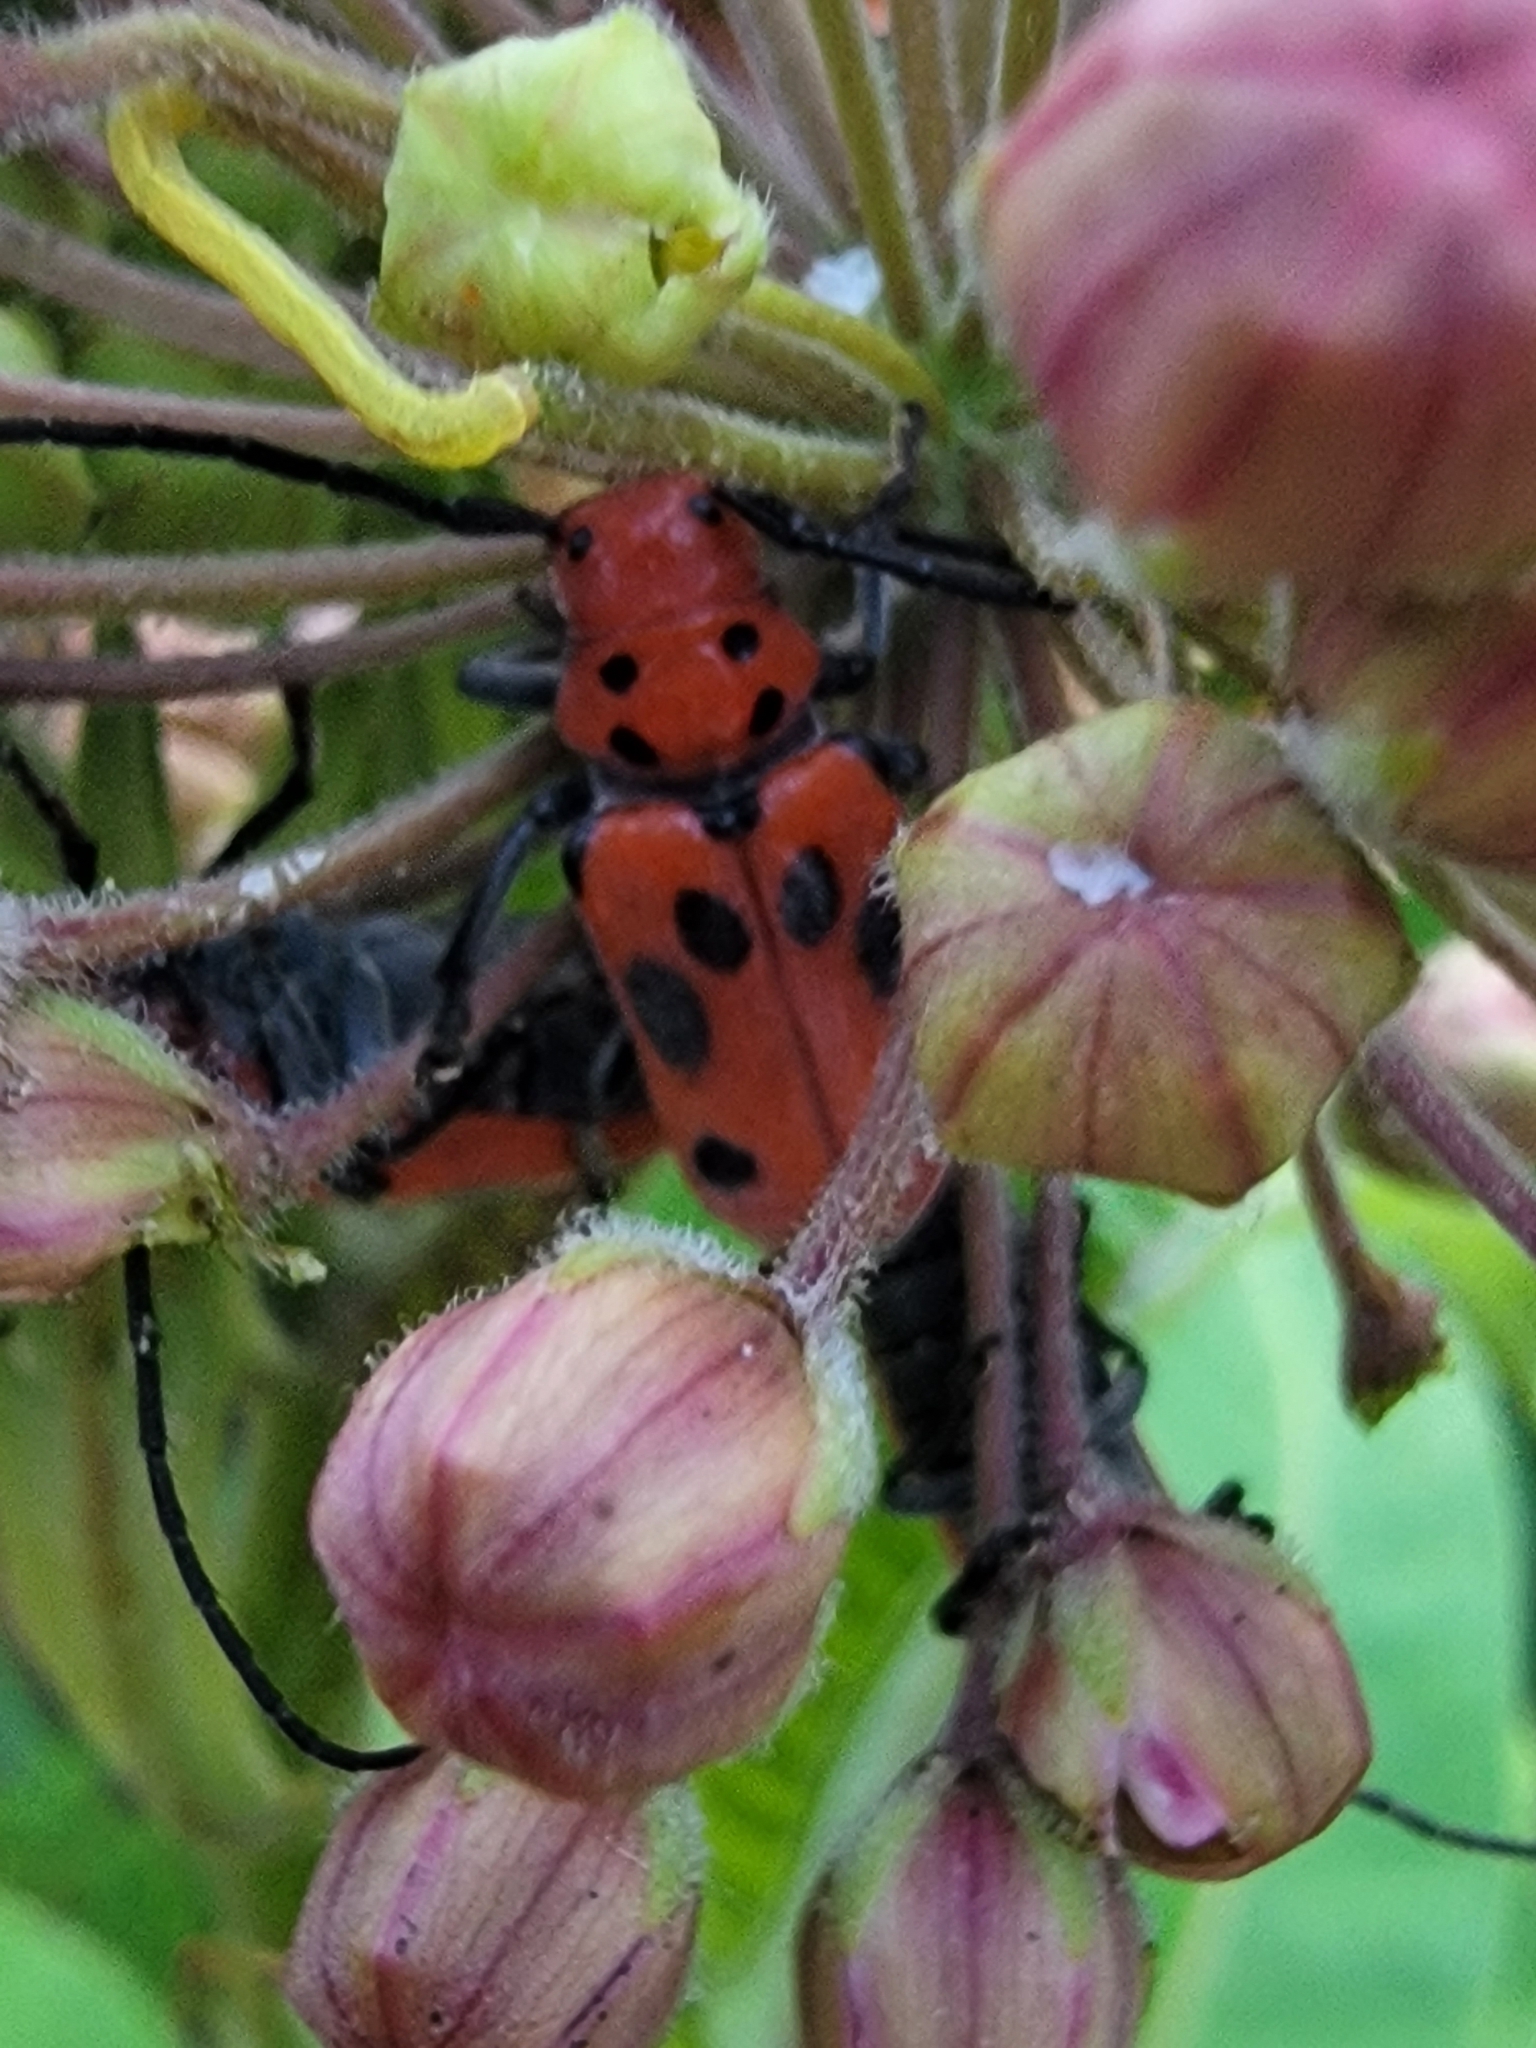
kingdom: Animalia
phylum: Arthropoda
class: Insecta
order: Coleoptera
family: Cerambycidae
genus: Tetraopes
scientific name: Tetraopes tetrophthalmus
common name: Red milkweed beetle
